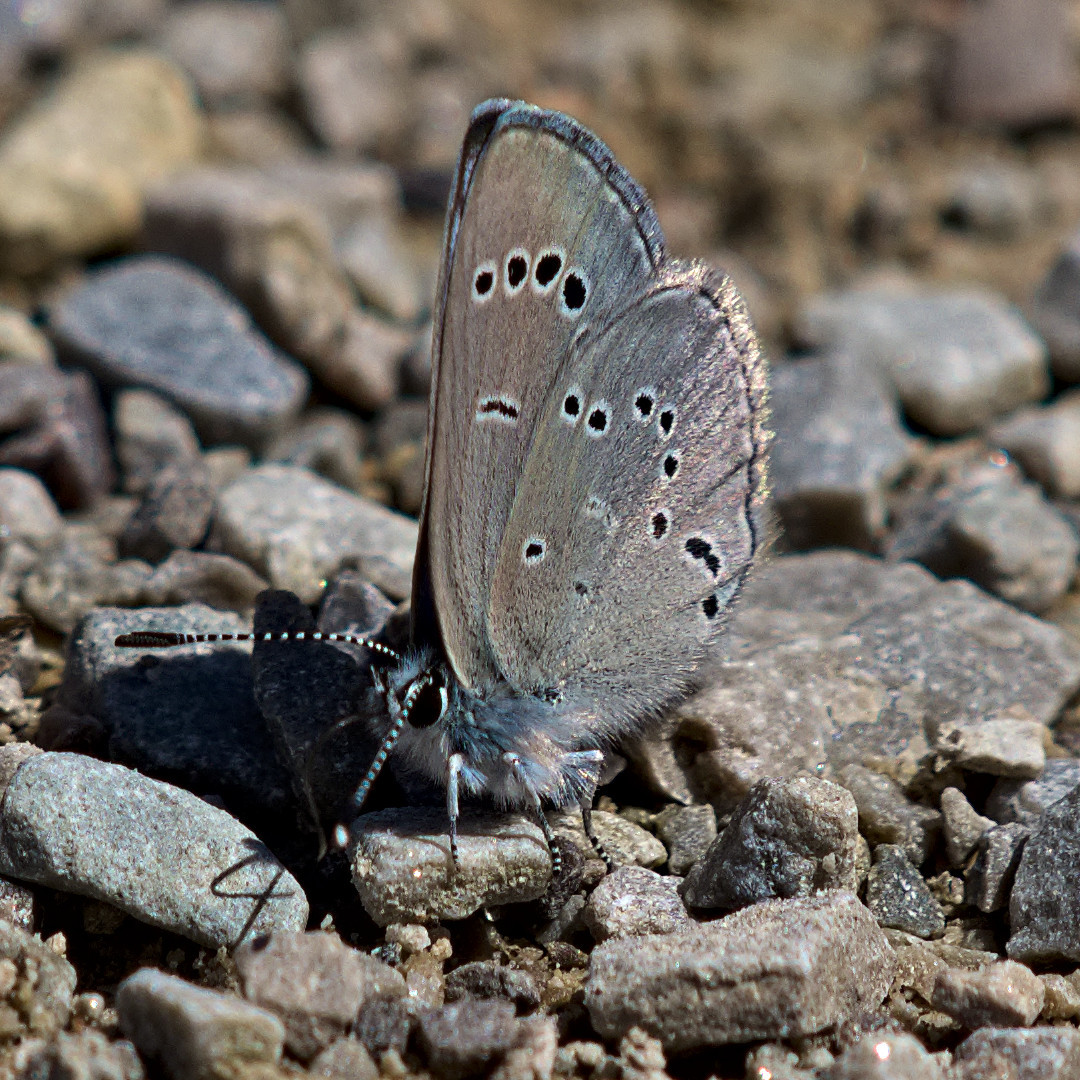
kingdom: Animalia
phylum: Arthropoda
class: Insecta
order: Lepidoptera
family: Lycaenidae
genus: Glaucopsyche
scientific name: Glaucopsyche lygdamus
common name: Silvery blue
